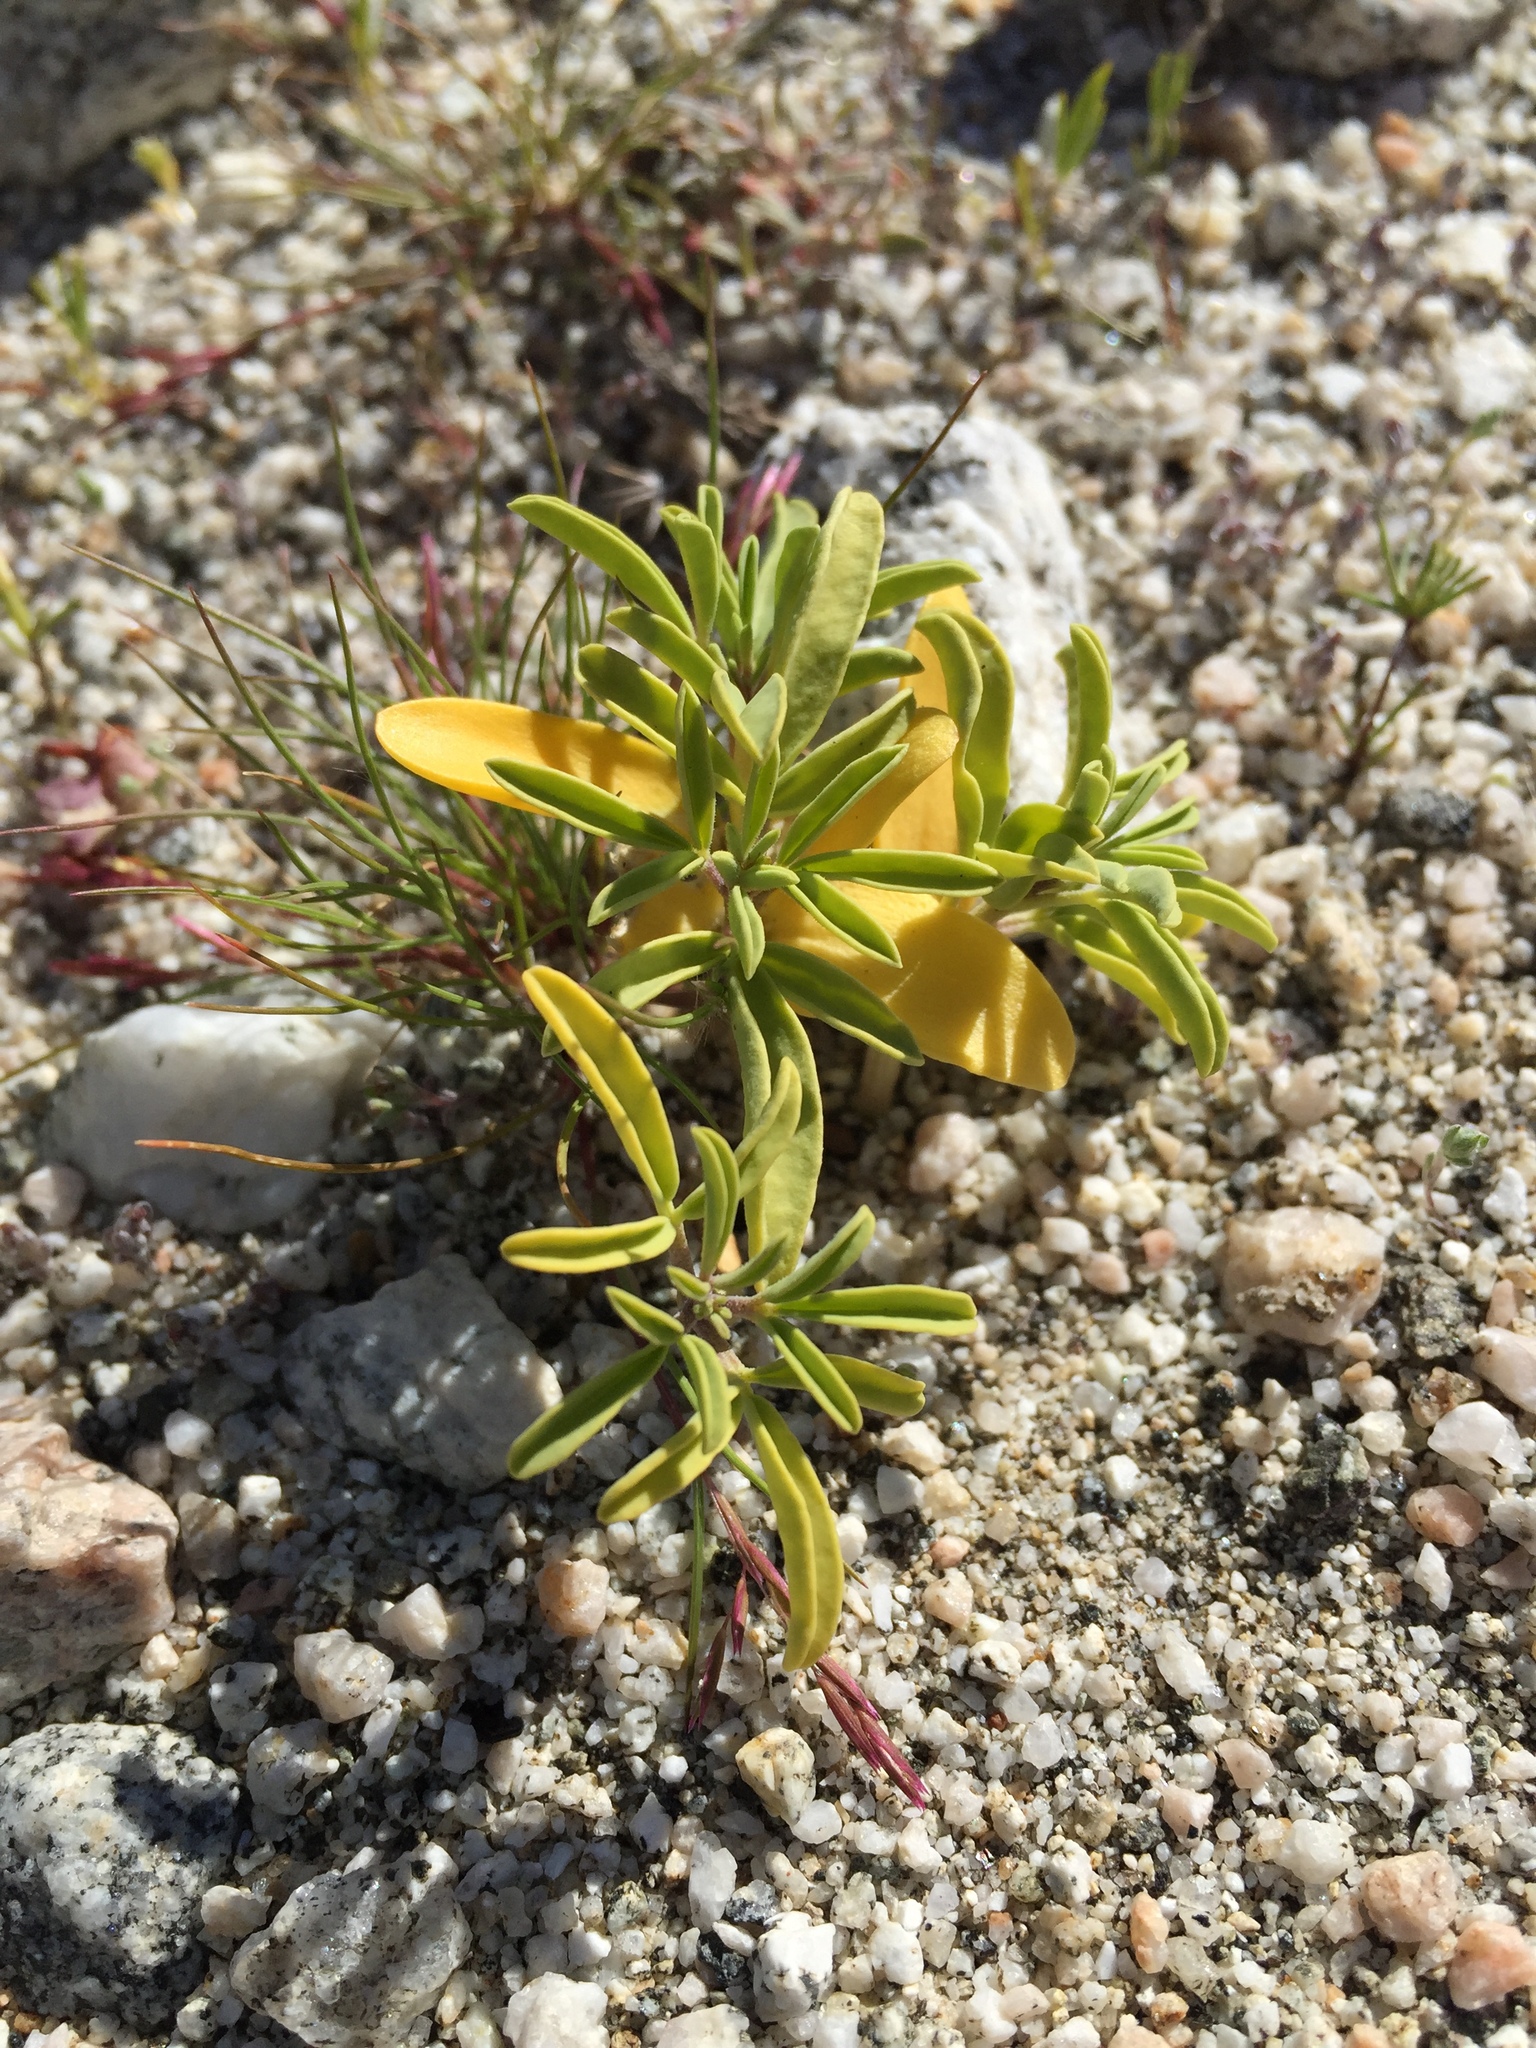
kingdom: Plantae
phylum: Tracheophyta
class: Magnoliopsida
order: Brassicales
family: Cleomaceae
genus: Cleomella
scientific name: Cleomella arborea
